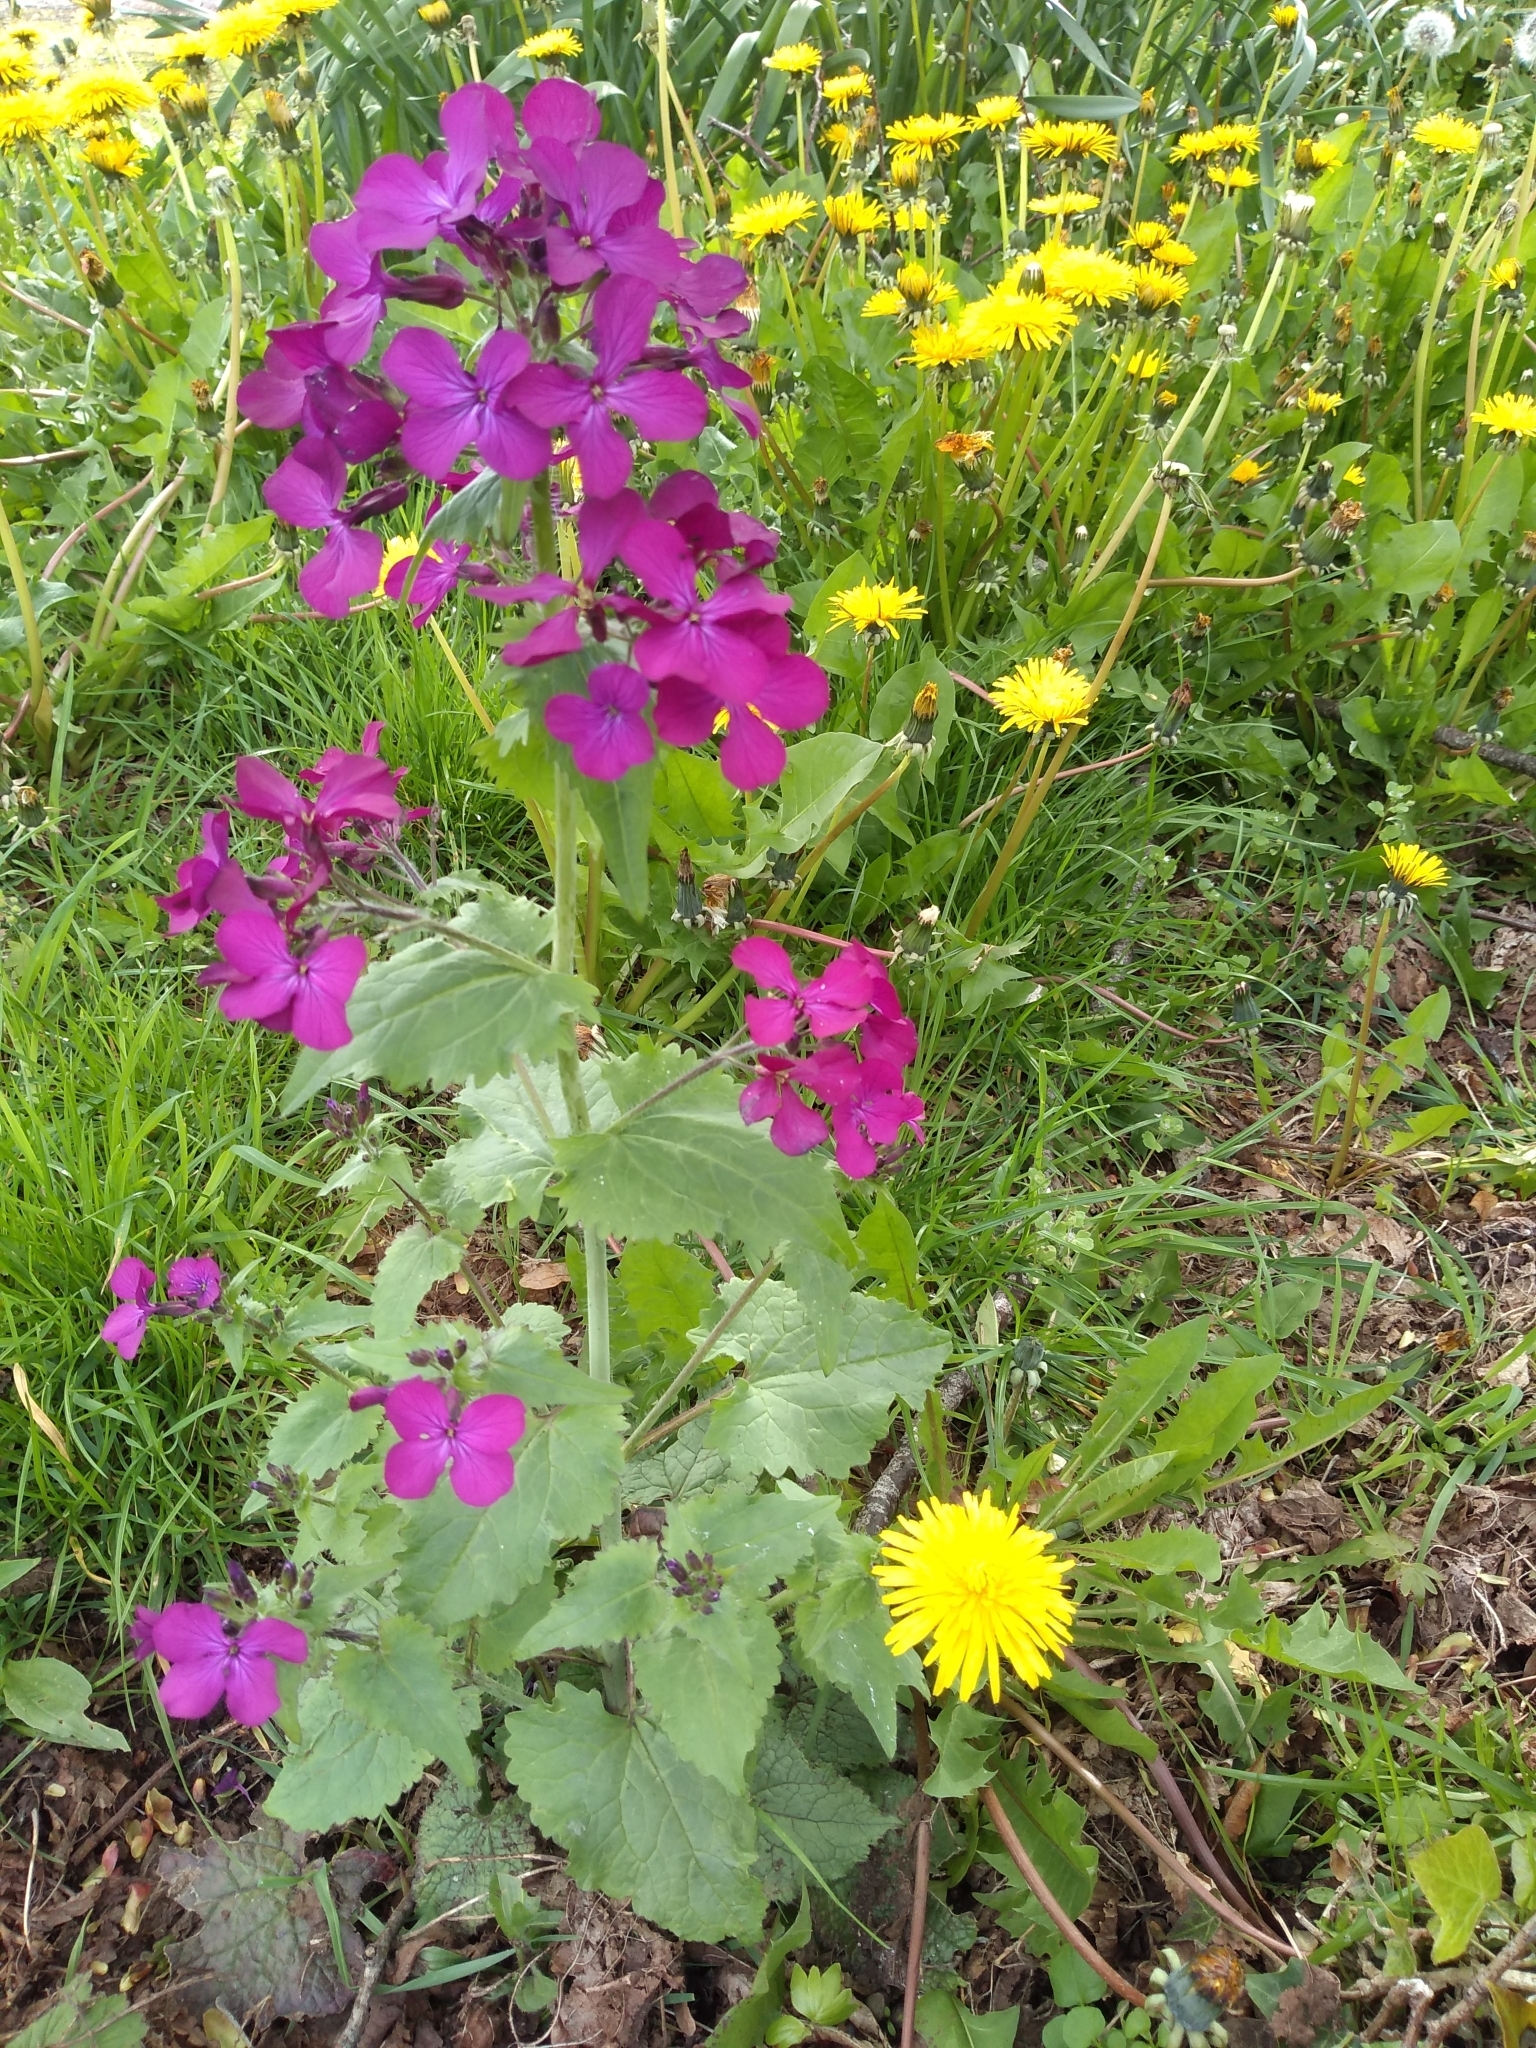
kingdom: Plantae
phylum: Tracheophyta
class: Magnoliopsida
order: Brassicales
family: Brassicaceae
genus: Lunaria
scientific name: Lunaria annua
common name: Honesty
